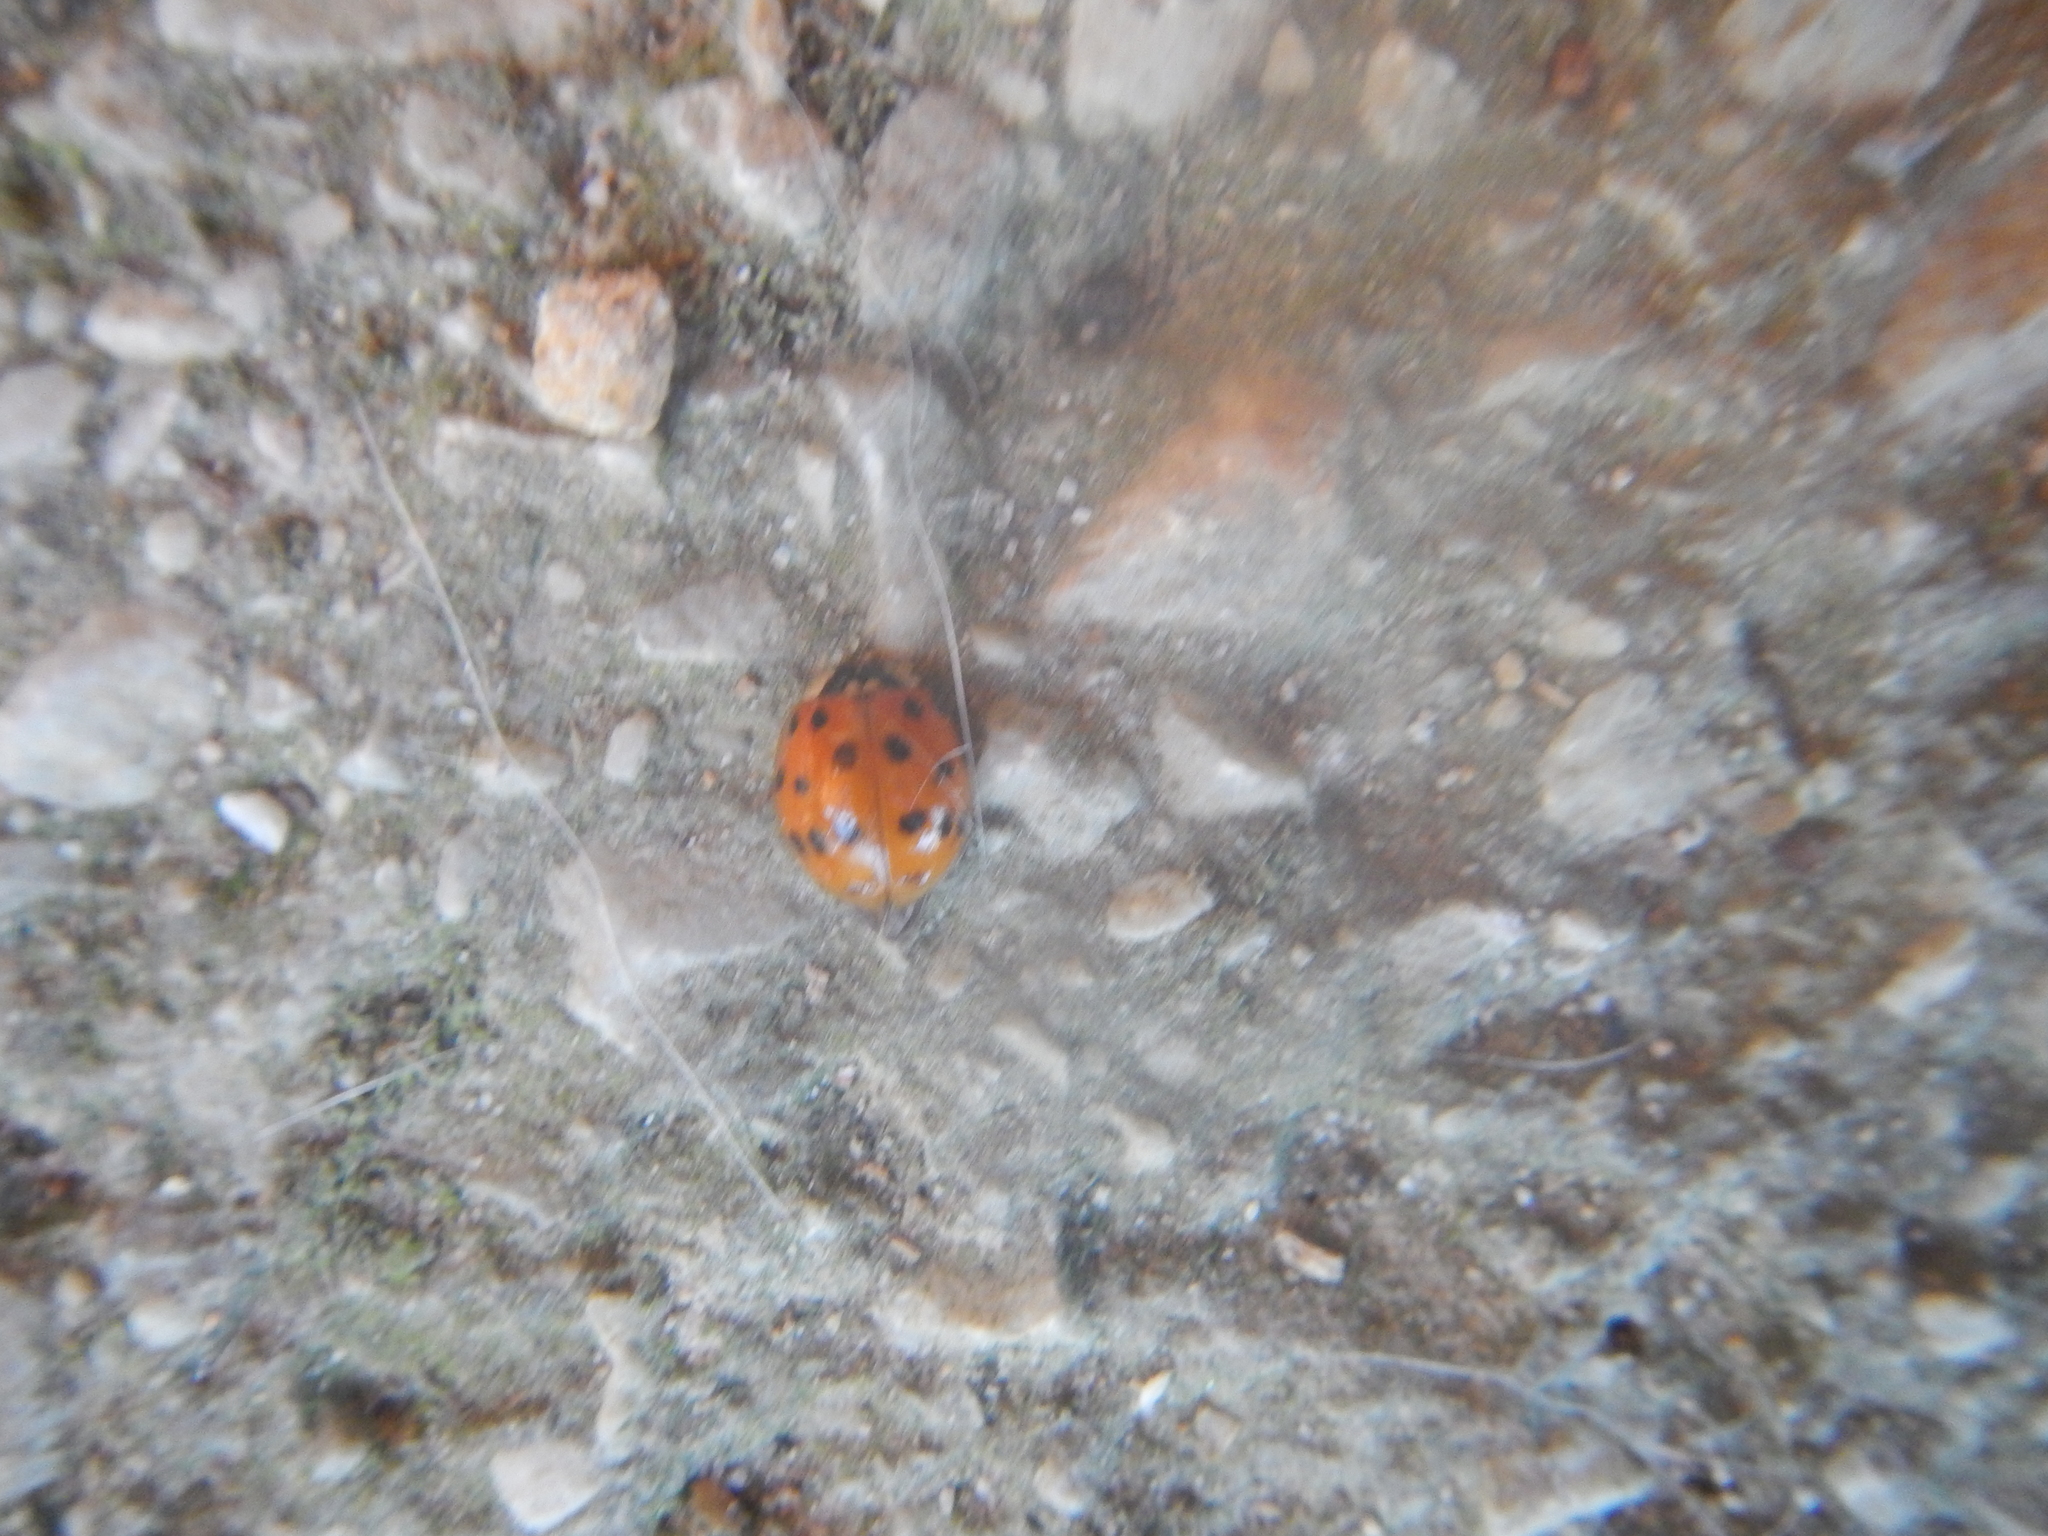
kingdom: Animalia
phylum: Arthropoda
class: Insecta
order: Coleoptera
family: Coccinellidae
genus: Harmonia
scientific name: Harmonia axyridis
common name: Harlequin ladybird
